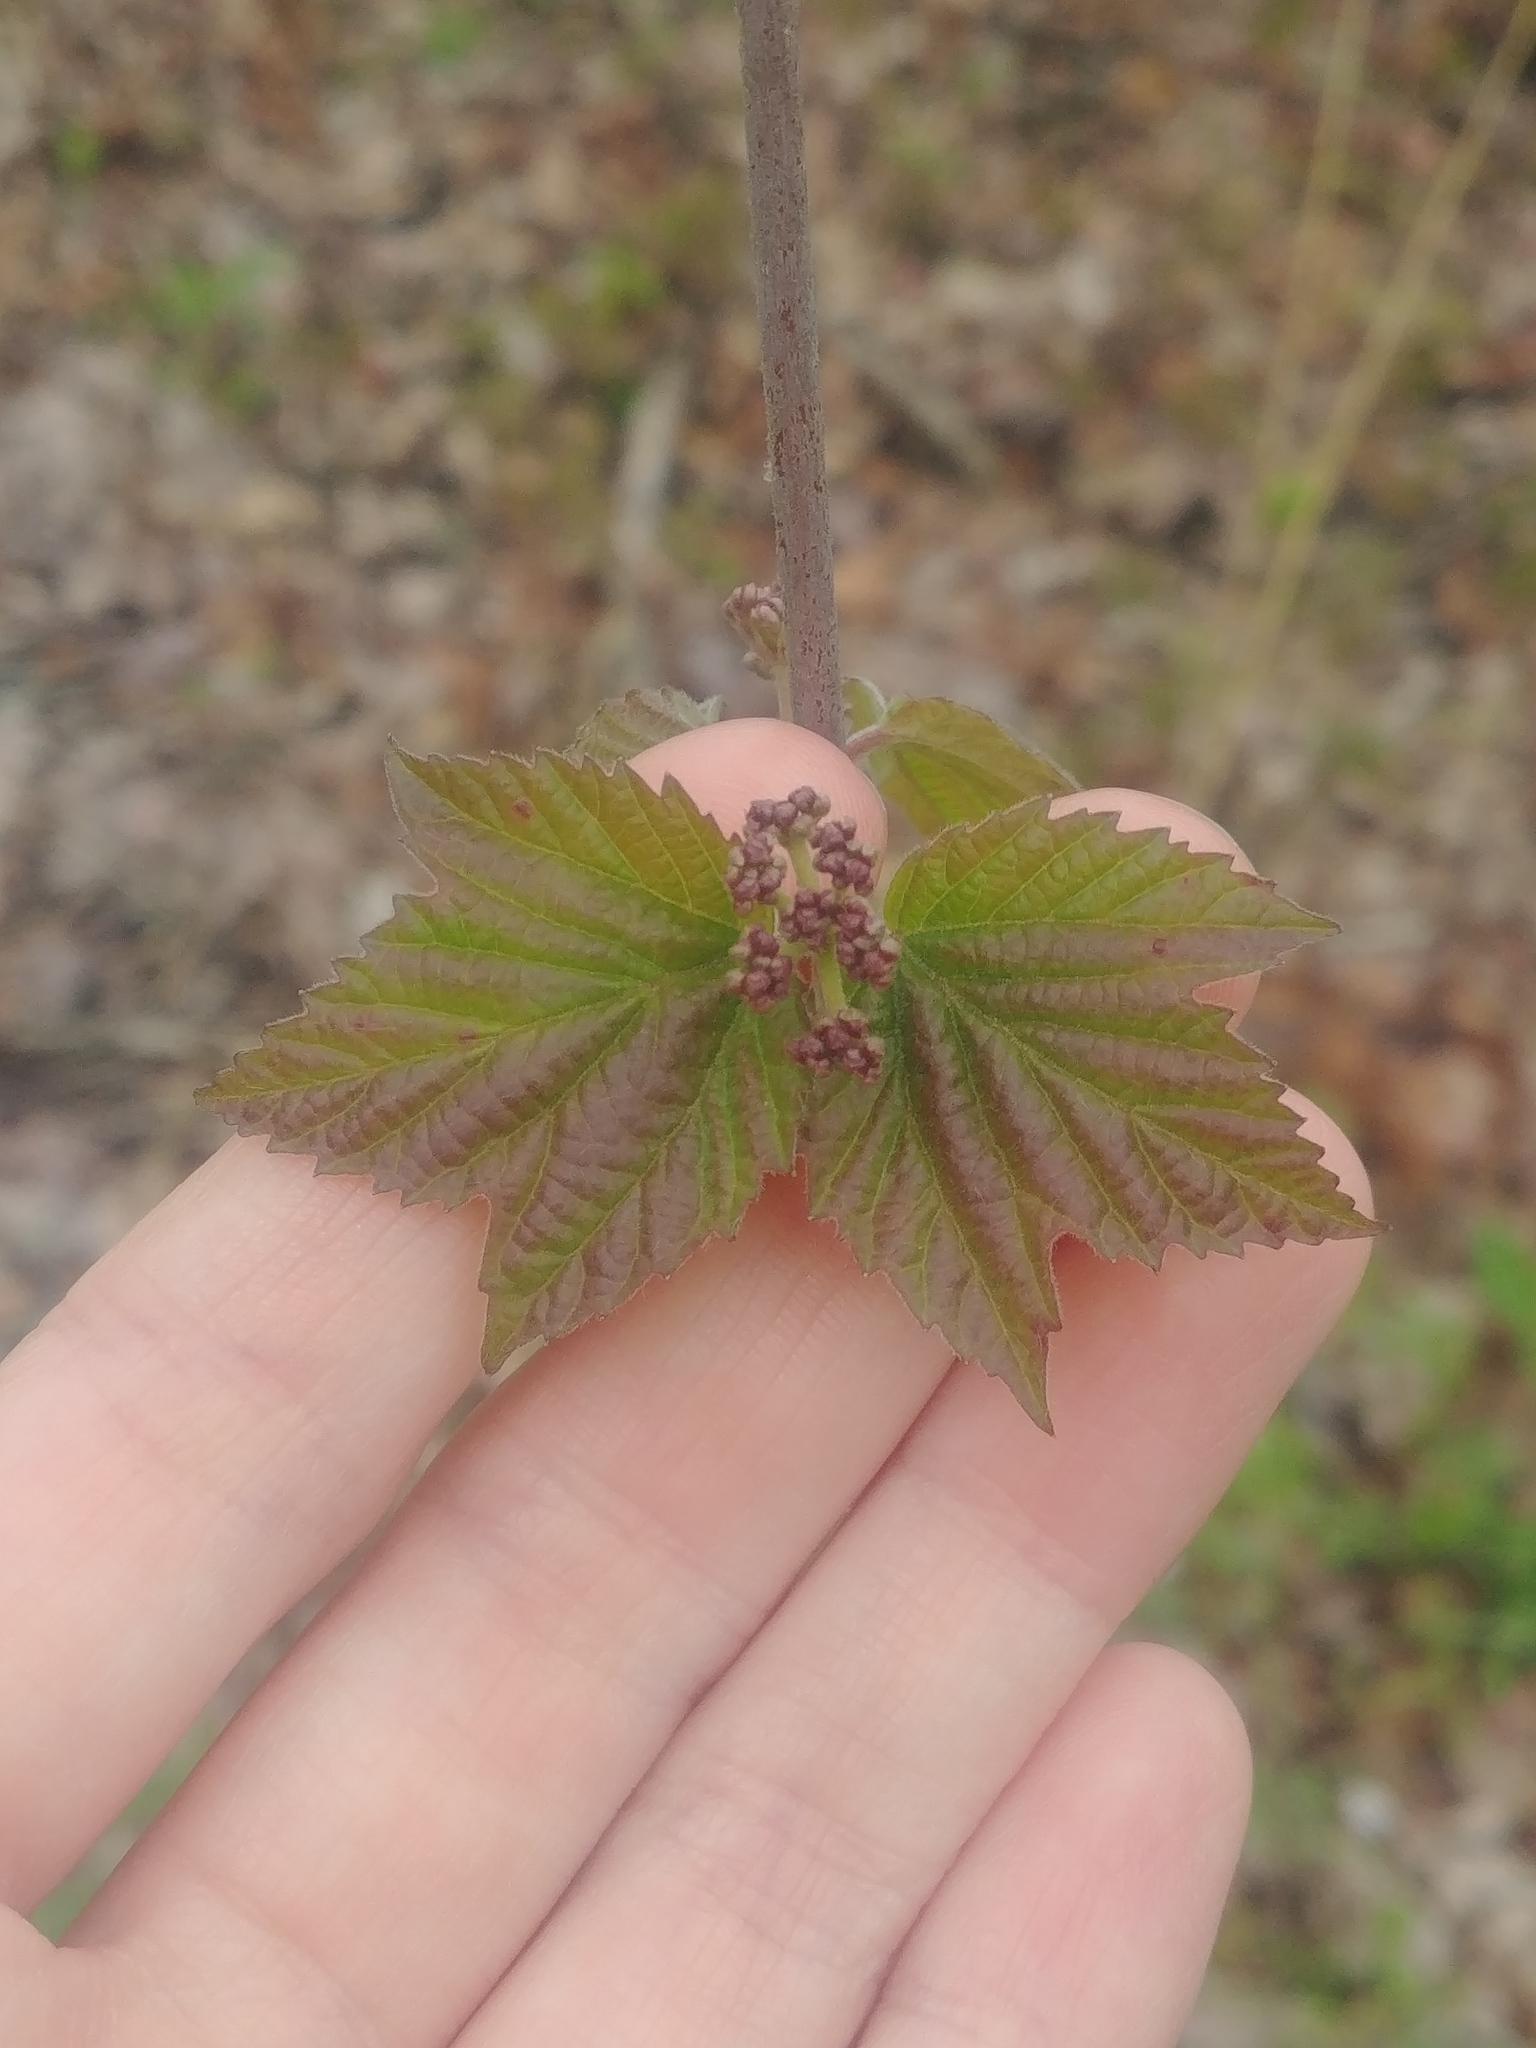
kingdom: Plantae
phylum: Tracheophyta
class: Magnoliopsida
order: Dipsacales
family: Viburnaceae
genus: Viburnum
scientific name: Viburnum acerifolium
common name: Dockmackie
